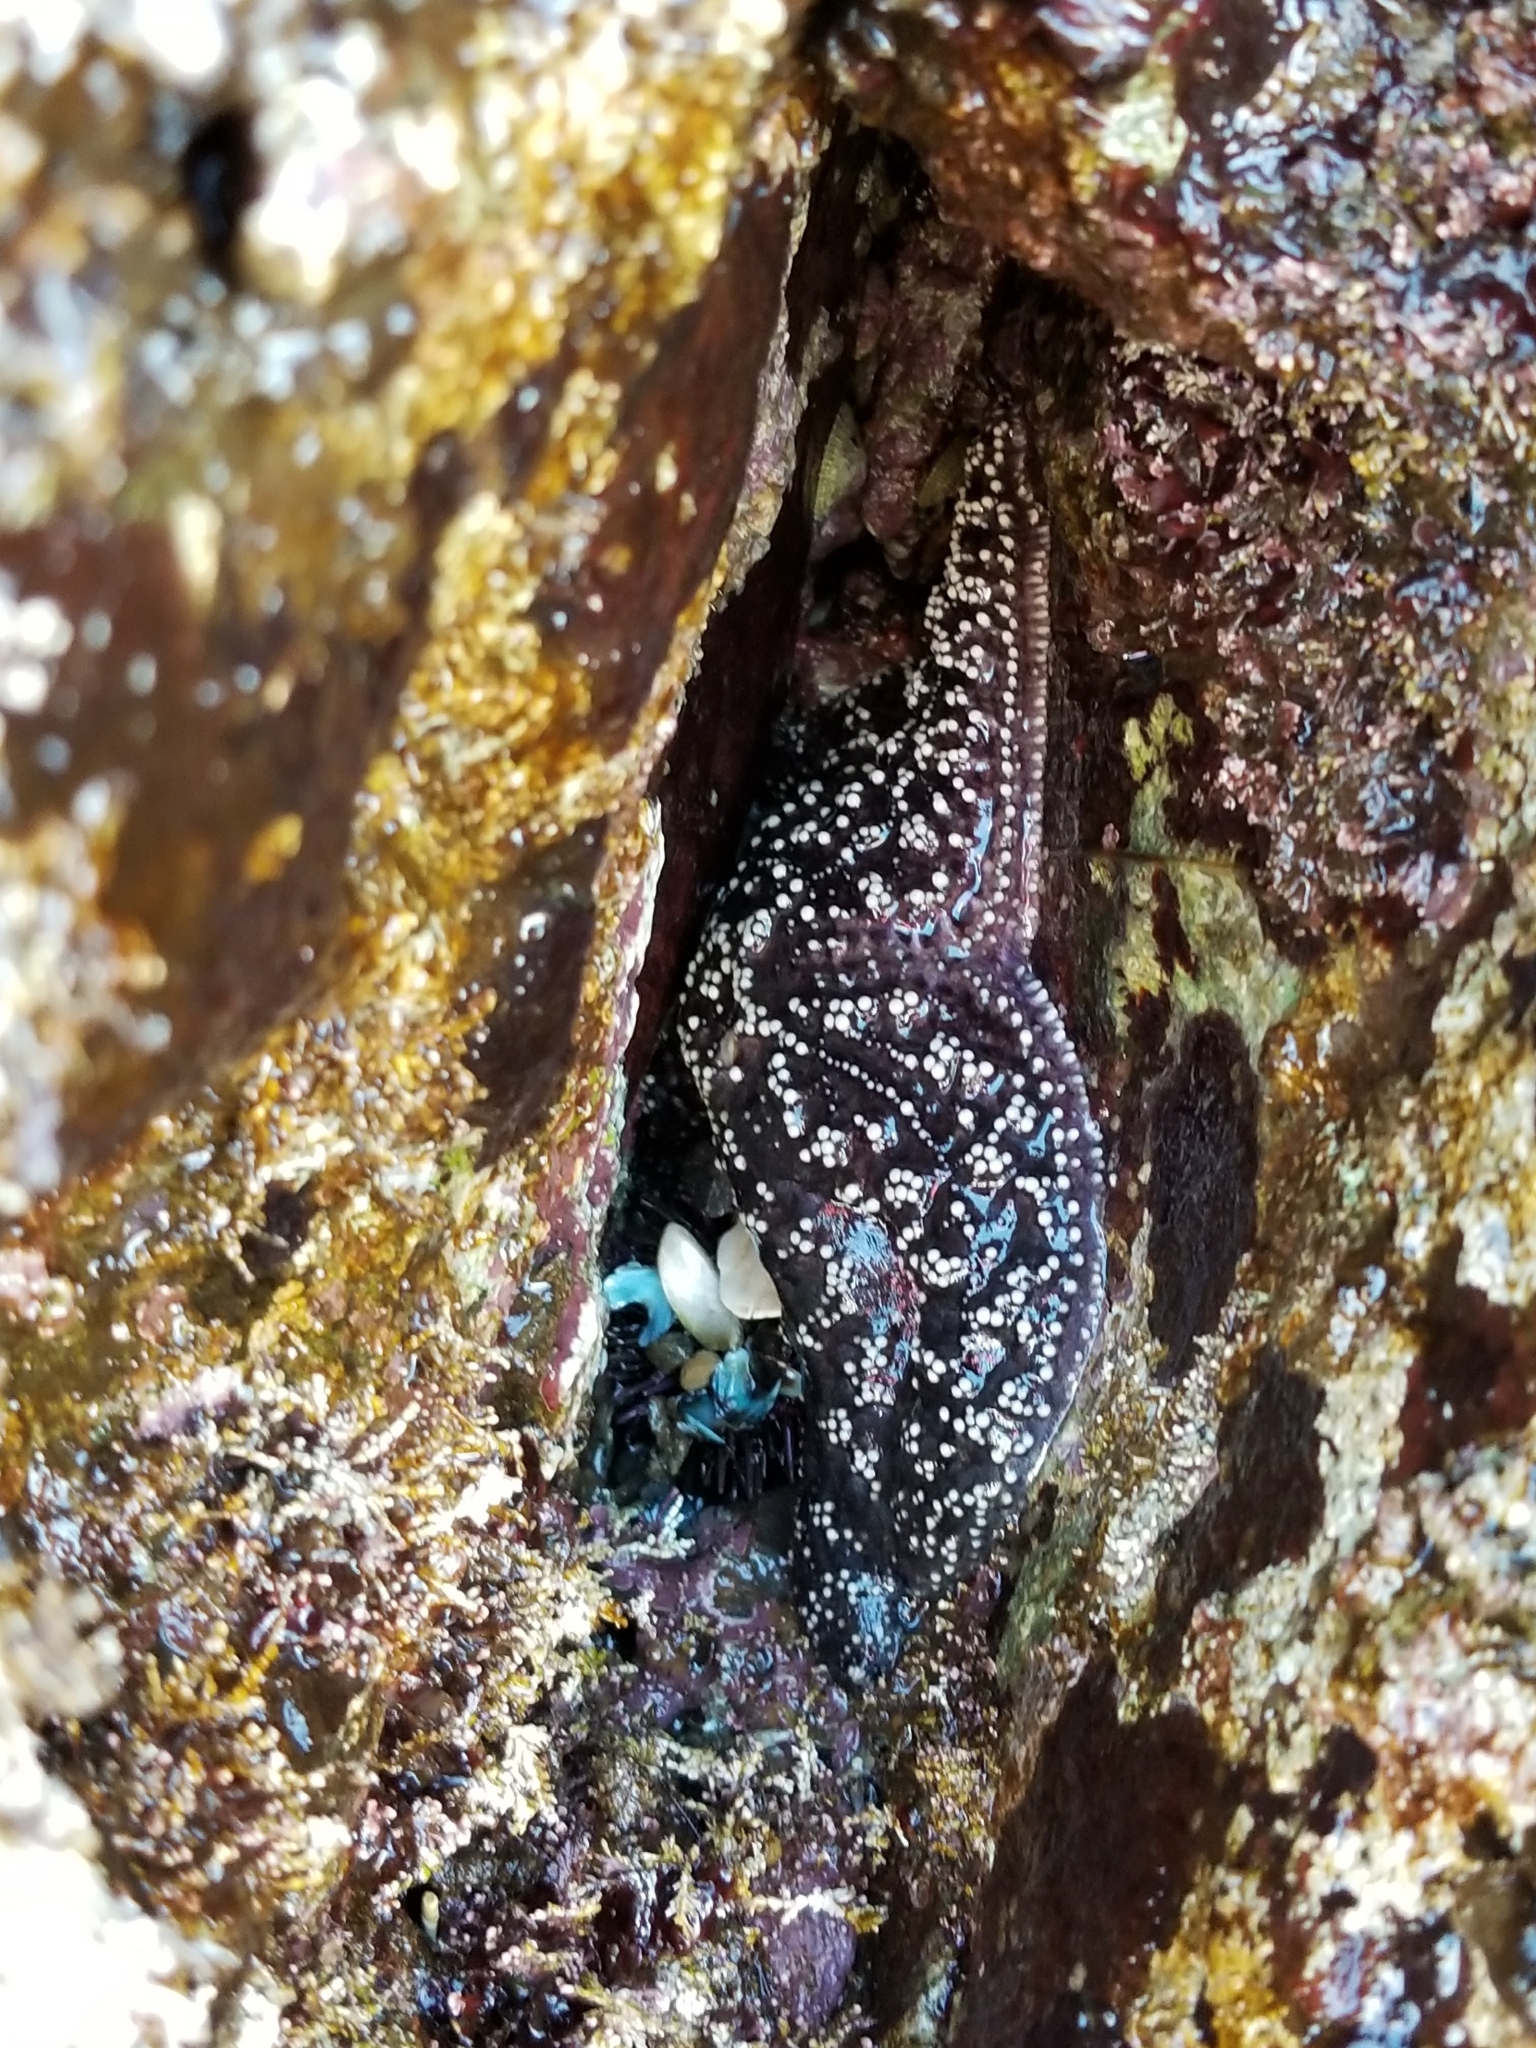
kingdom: Animalia
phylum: Echinodermata
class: Asteroidea
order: Forcipulatida
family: Asteriidae
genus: Pisaster
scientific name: Pisaster ochraceus
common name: Ochre stars
